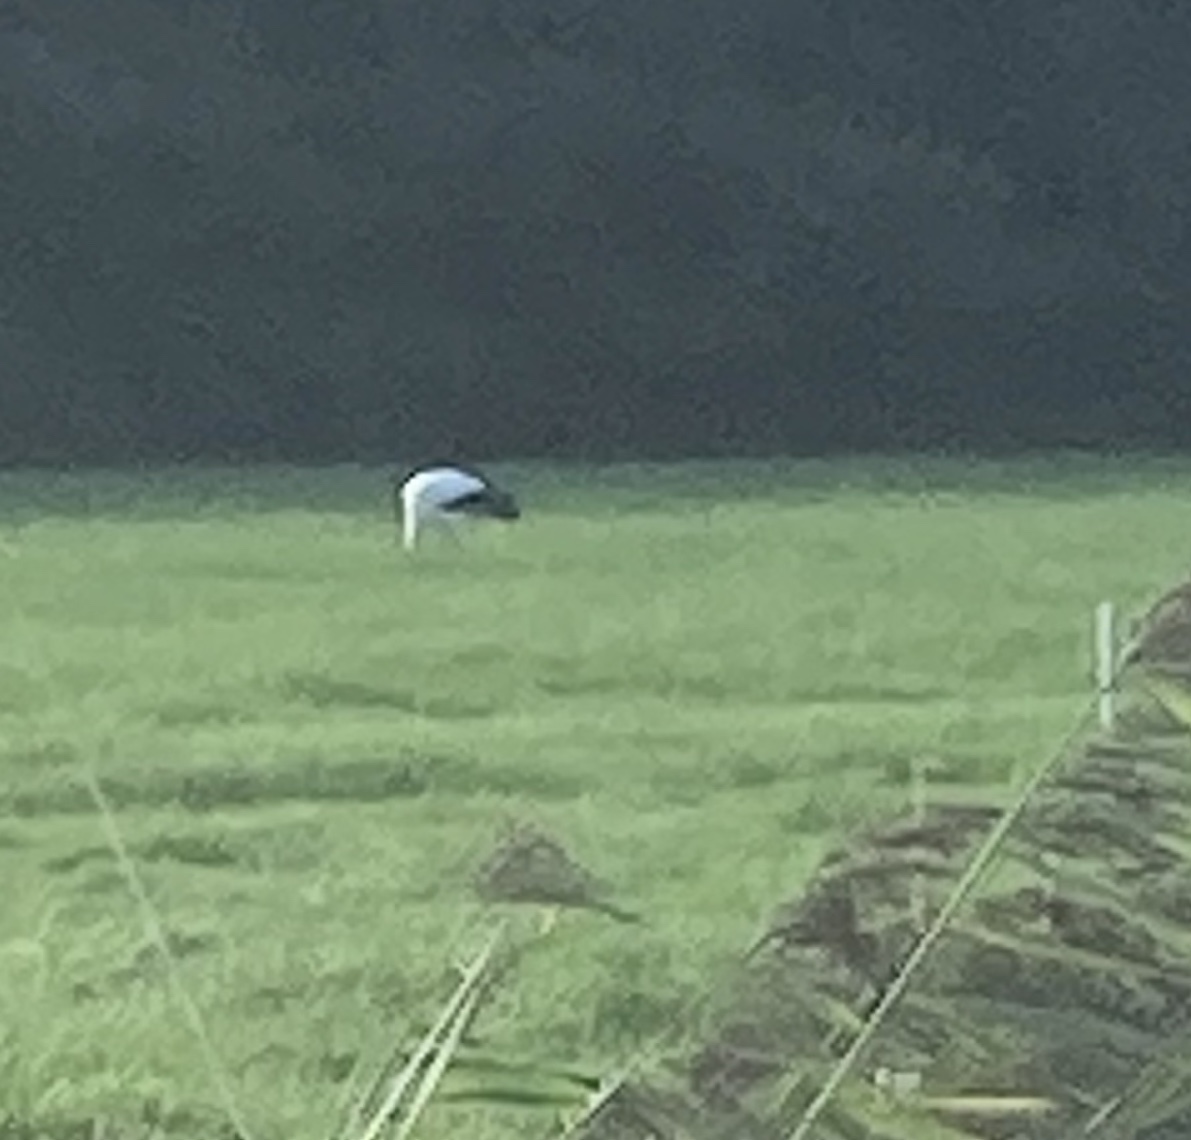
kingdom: Animalia
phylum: Chordata
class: Aves
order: Ciconiiformes
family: Ciconiidae
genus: Ciconia
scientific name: Ciconia ciconia
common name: White stork
